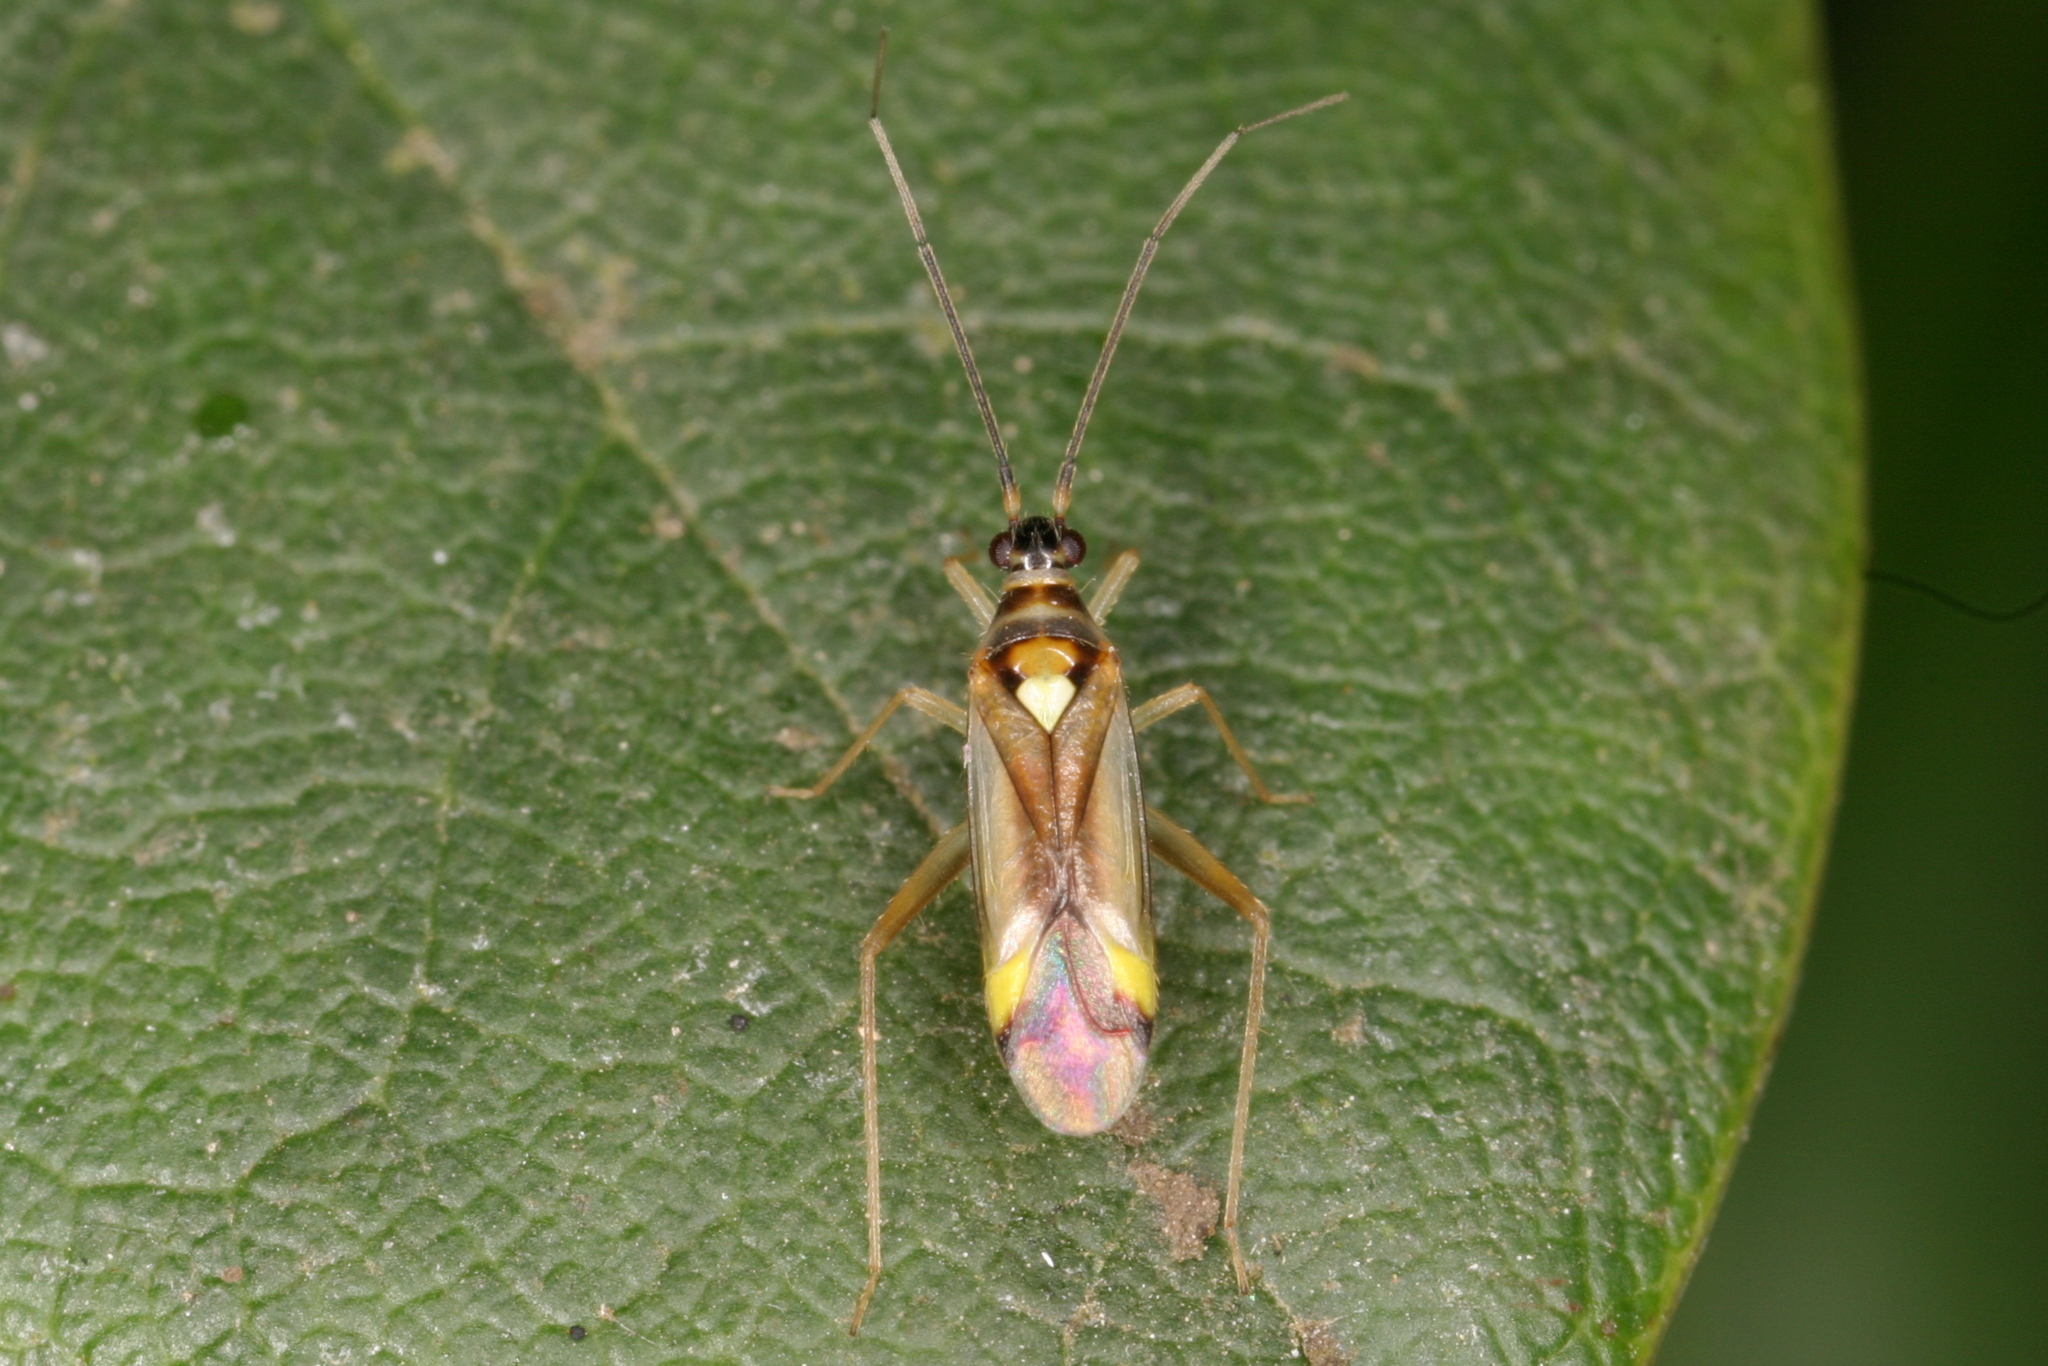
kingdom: Animalia
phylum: Arthropoda
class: Insecta
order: Hemiptera
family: Miridae
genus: Campyloneura
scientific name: Campyloneura virgula
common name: Predatory bug
